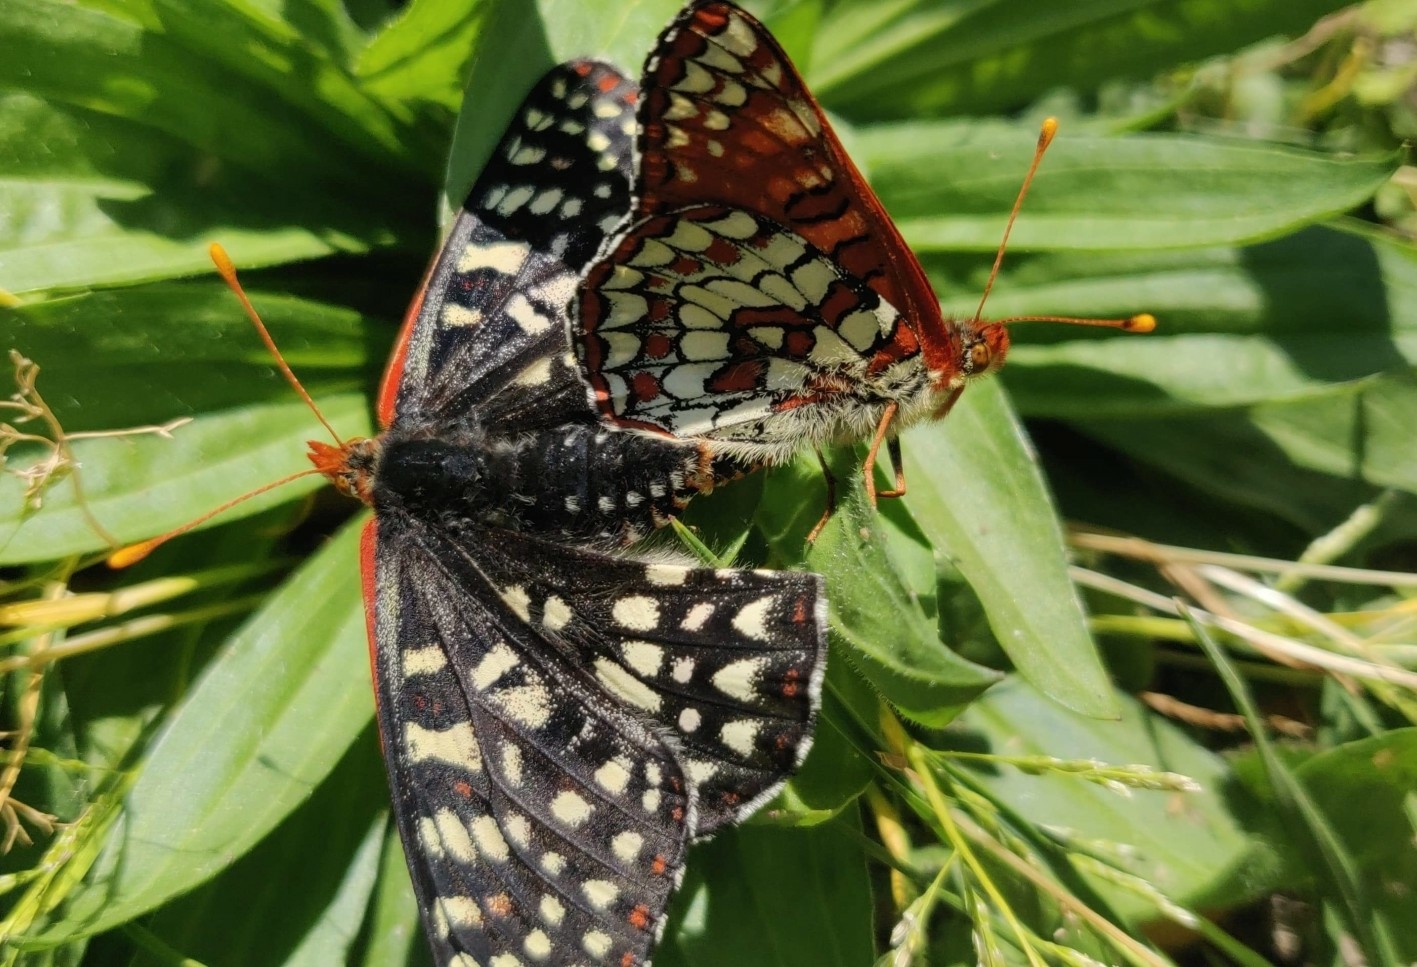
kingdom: Animalia
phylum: Arthropoda
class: Insecta
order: Lepidoptera
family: Nymphalidae
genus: Occidryas
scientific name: Occidryas chalcedona
